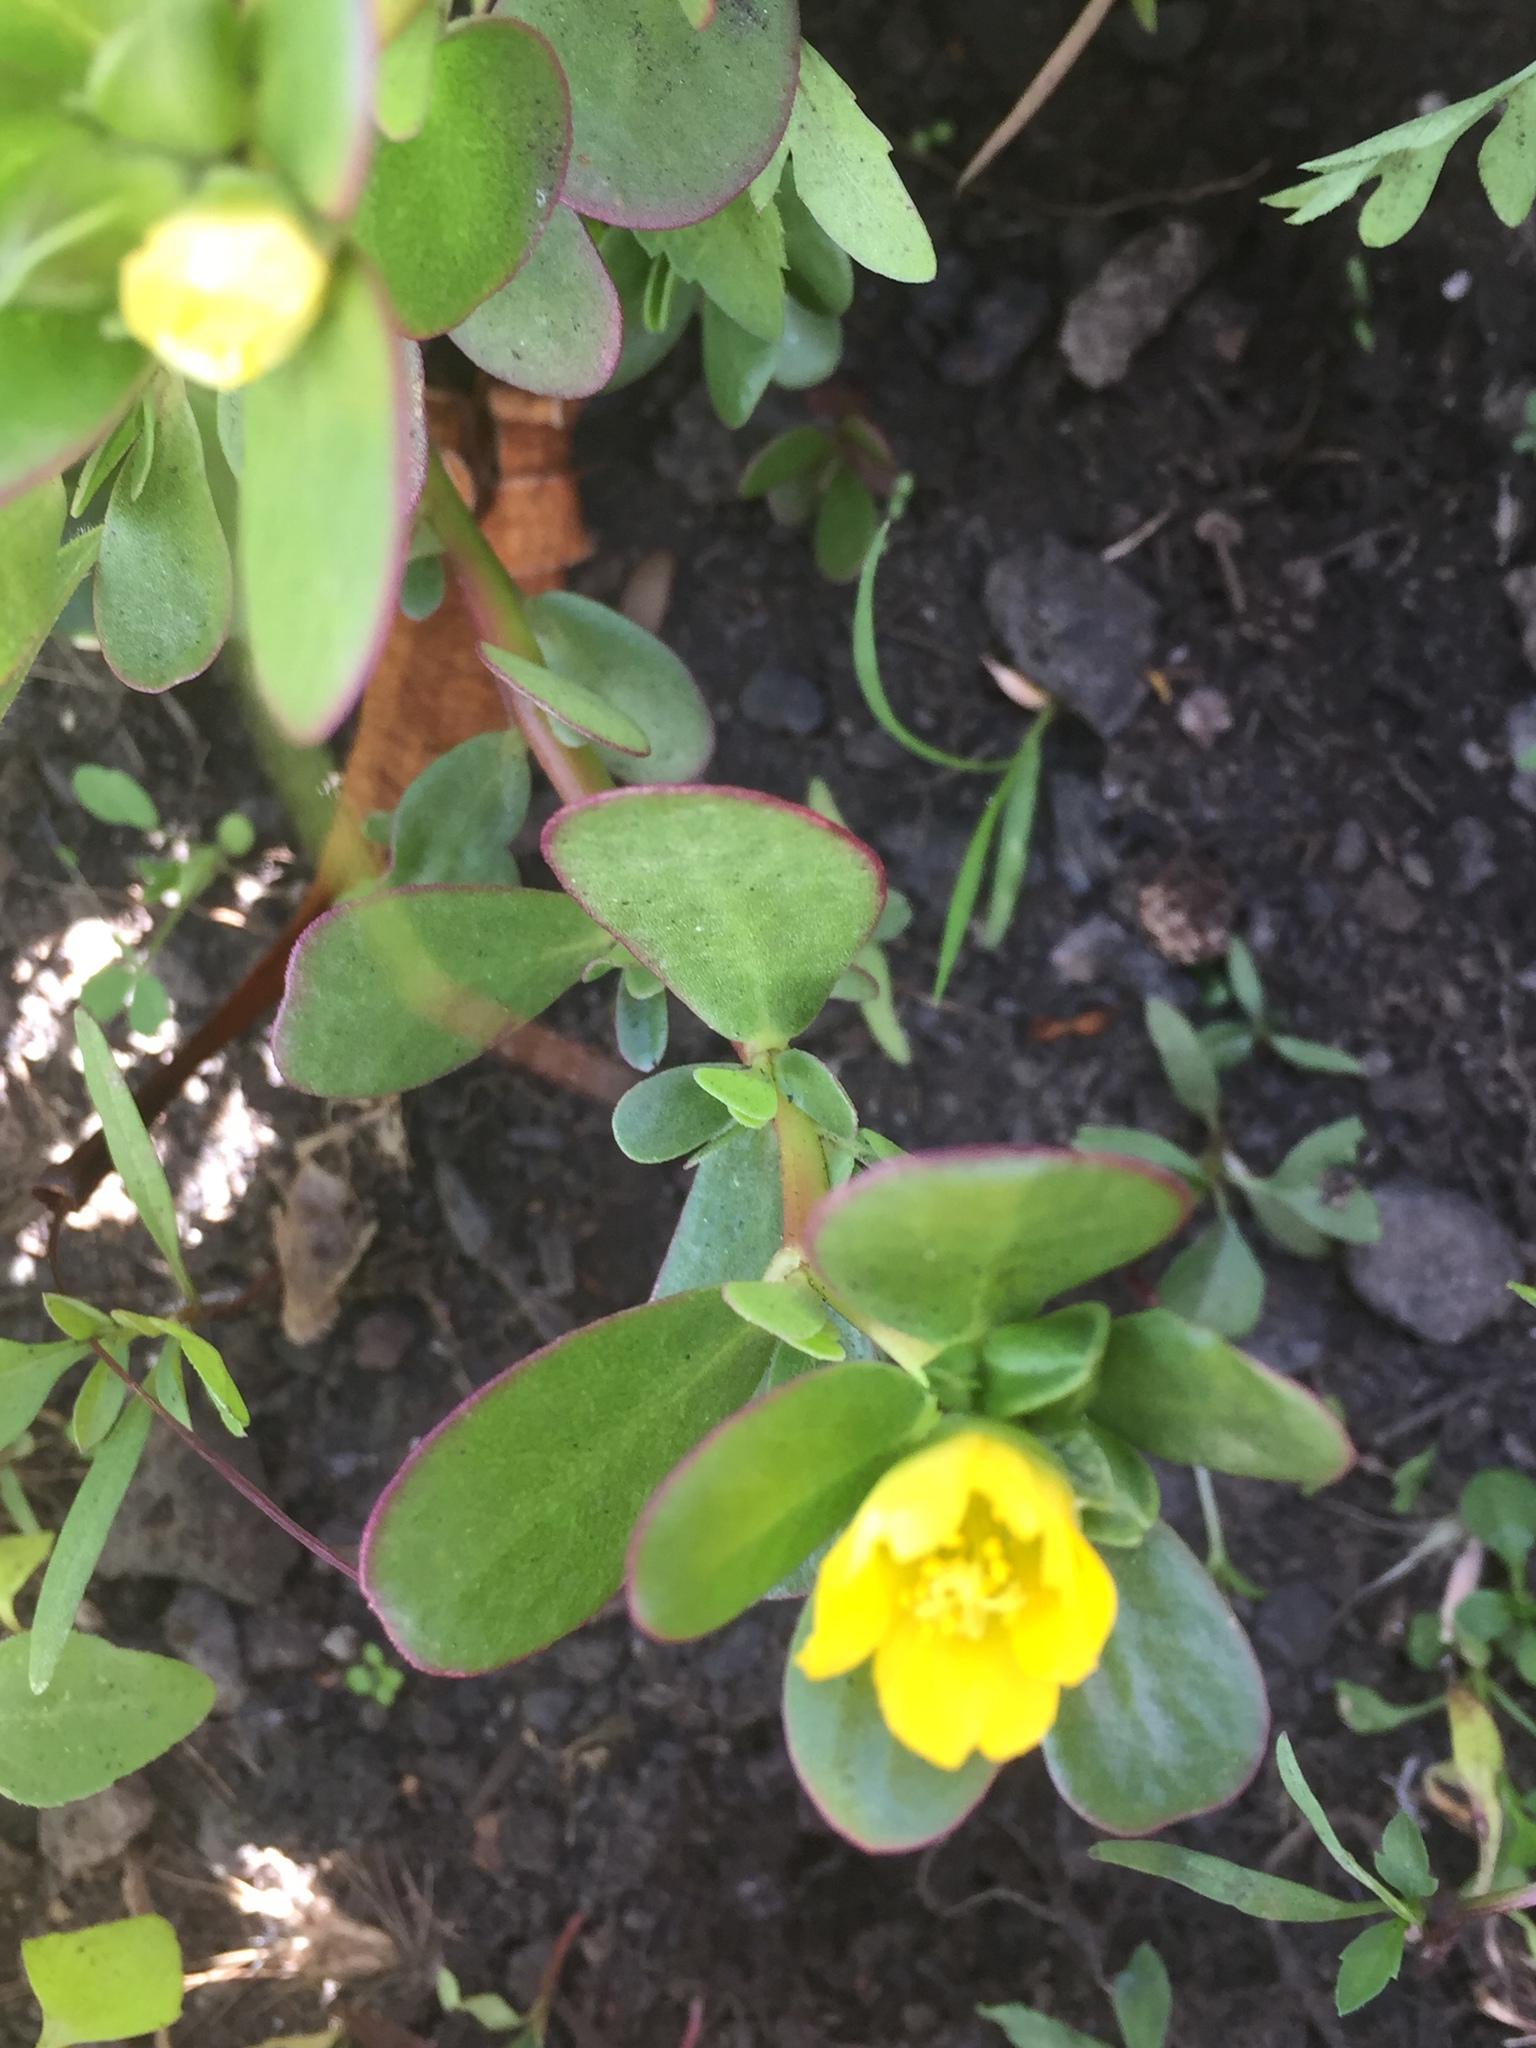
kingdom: Plantae
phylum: Tracheophyta
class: Magnoliopsida
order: Caryophyllales
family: Portulacaceae
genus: Portulaca
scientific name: Portulaca oleracea
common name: Common purslane
